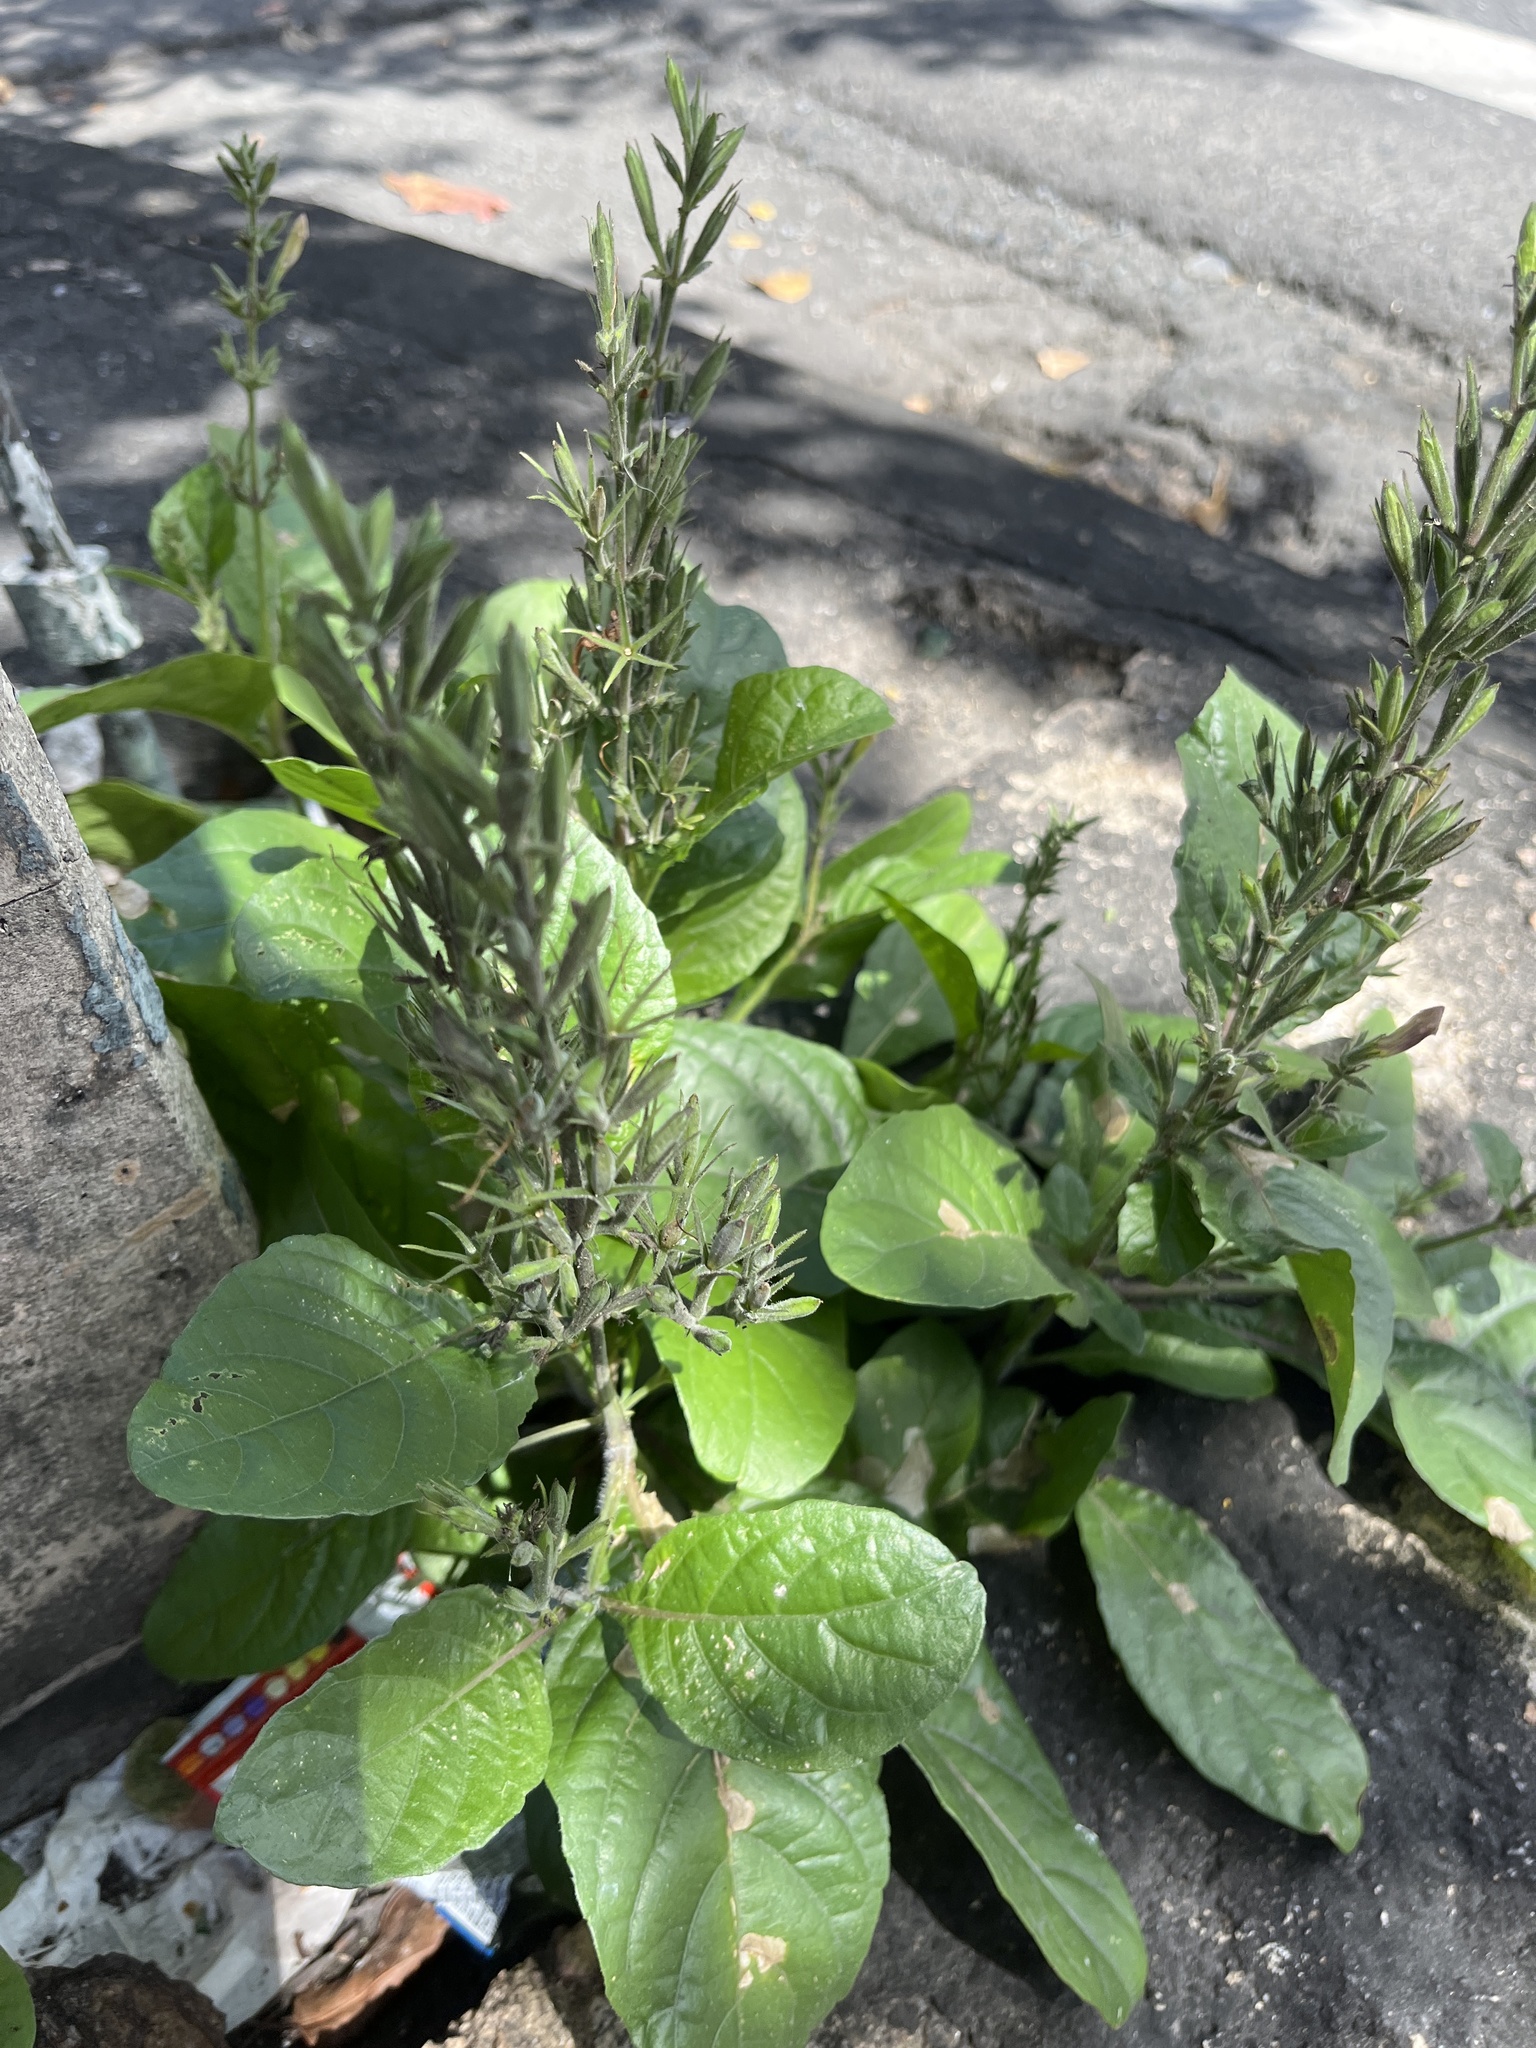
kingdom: Plantae
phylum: Tracheophyta
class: Magnoliopsida
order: Lamiales
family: Acanthaceae
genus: Ruellia
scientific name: Ruellia ciliatiflora
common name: Hairyflower wild petunia
